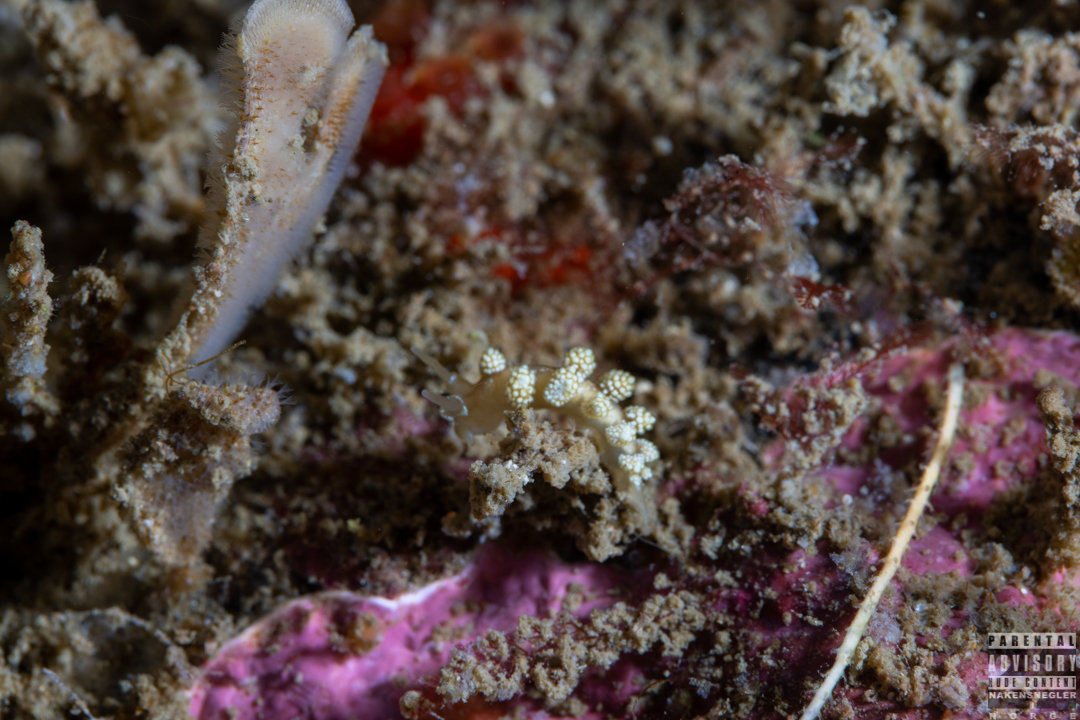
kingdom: Animalia
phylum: Mollusca
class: Gastropoda
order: Nudibranchia
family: Dotidae
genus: Doto
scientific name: Doto fragilis
